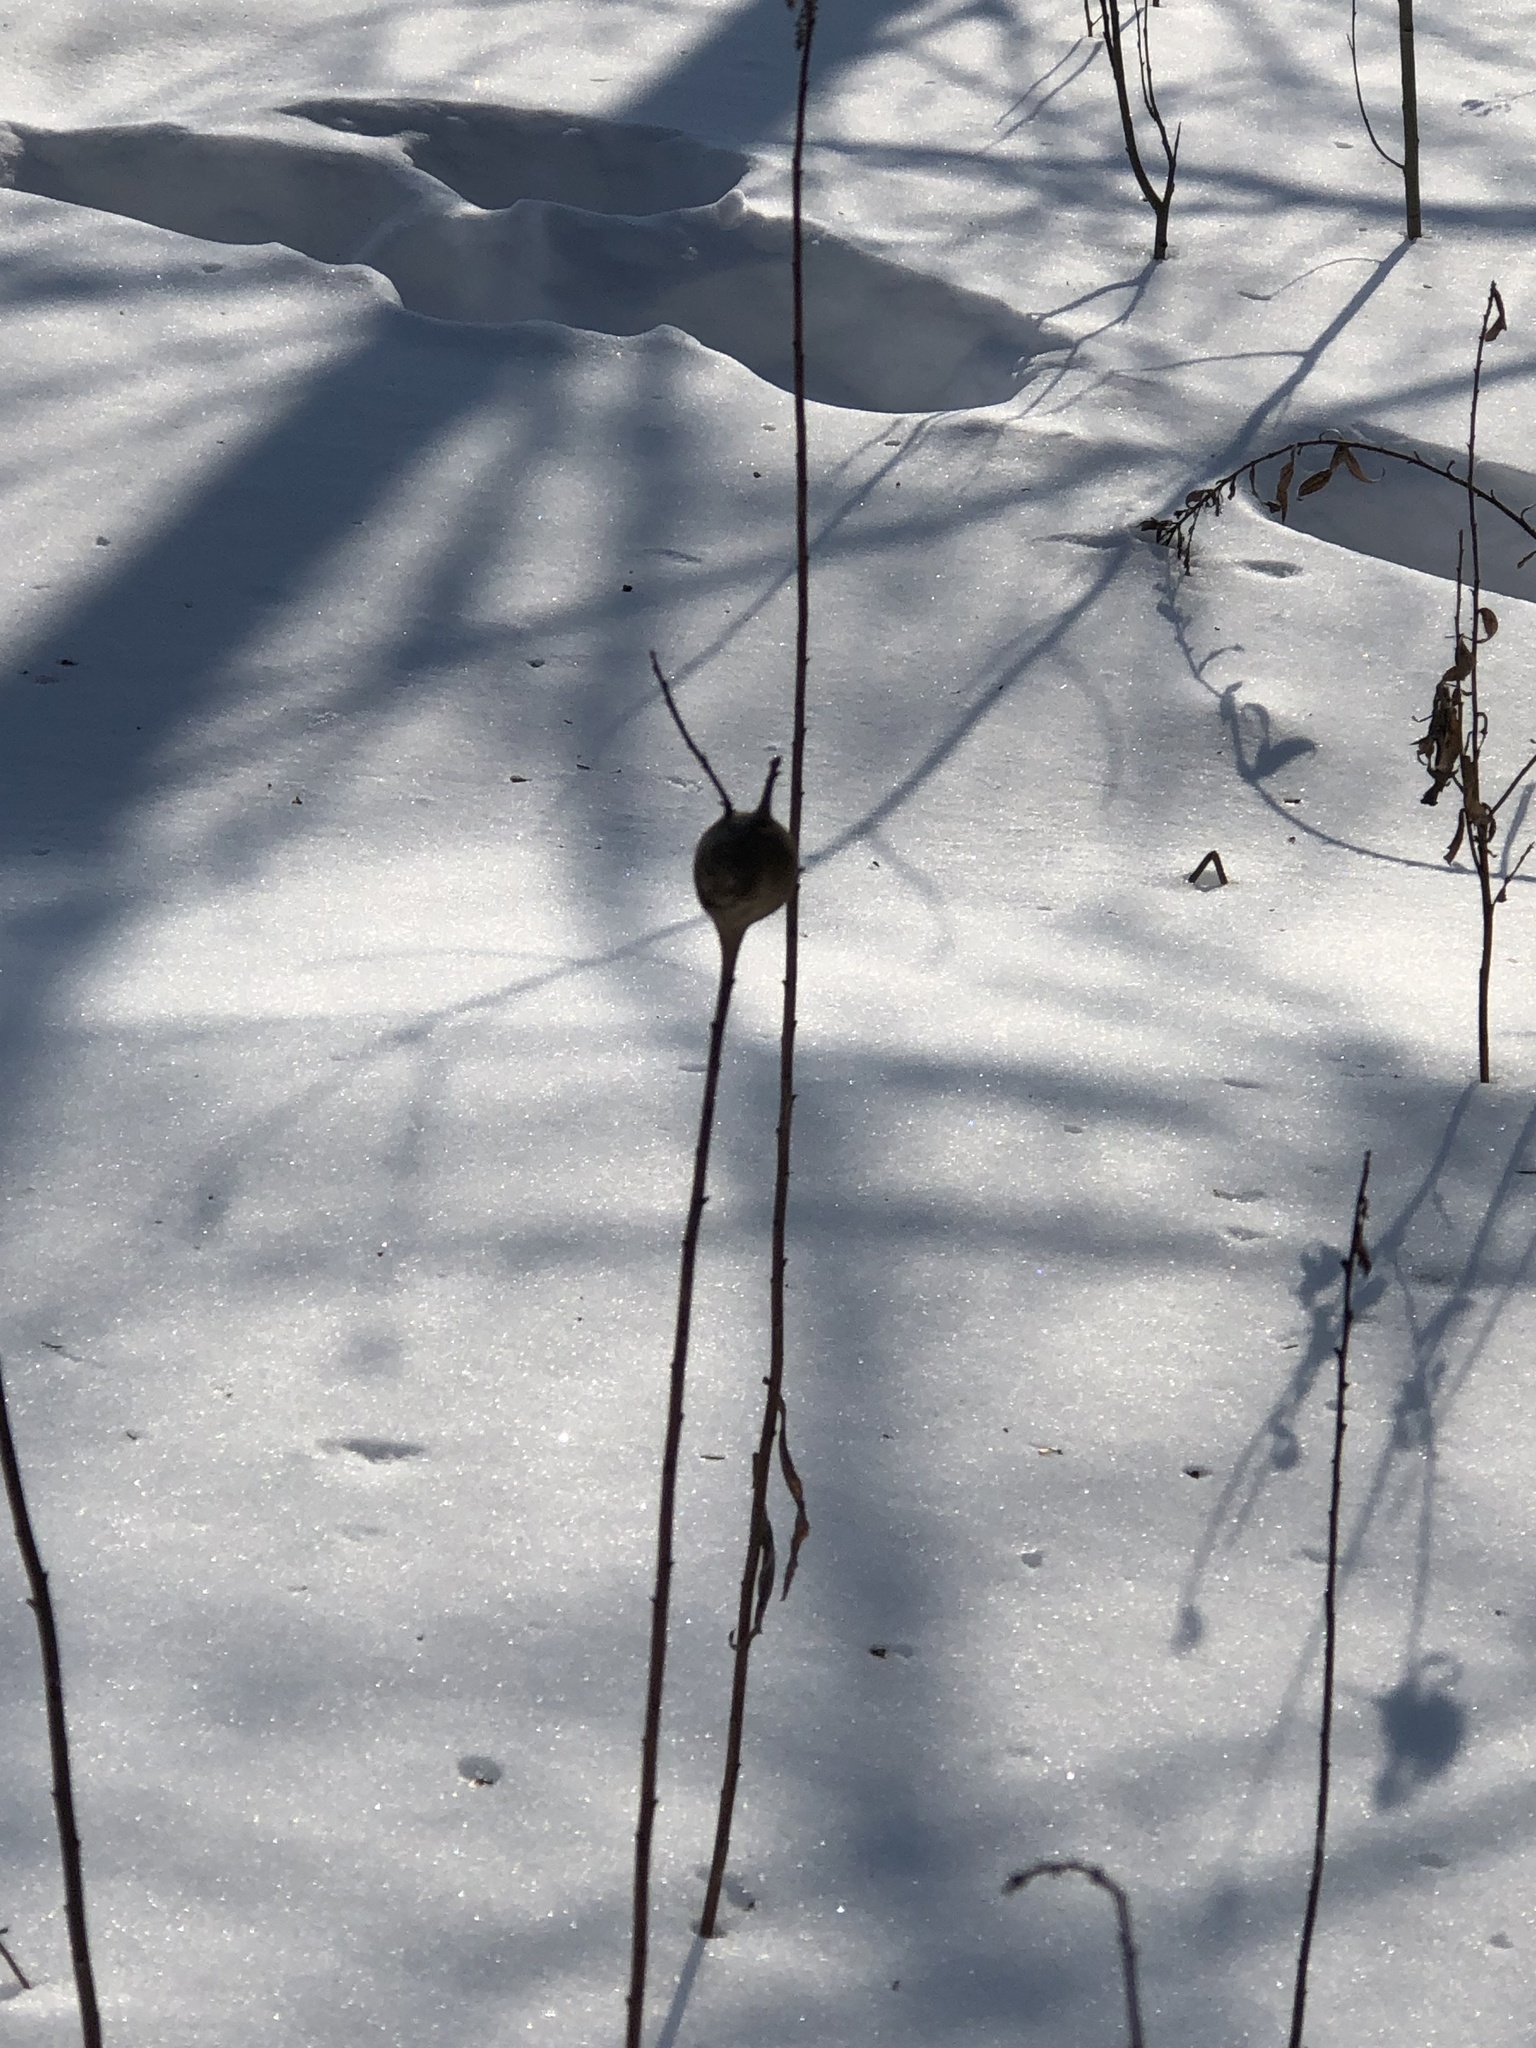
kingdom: Animalia
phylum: Arthropoda
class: Insecta
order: Diptera
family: Tephritidae
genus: Eurosta
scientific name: Eurosta solidaginis
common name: Goldenrod gall fly
